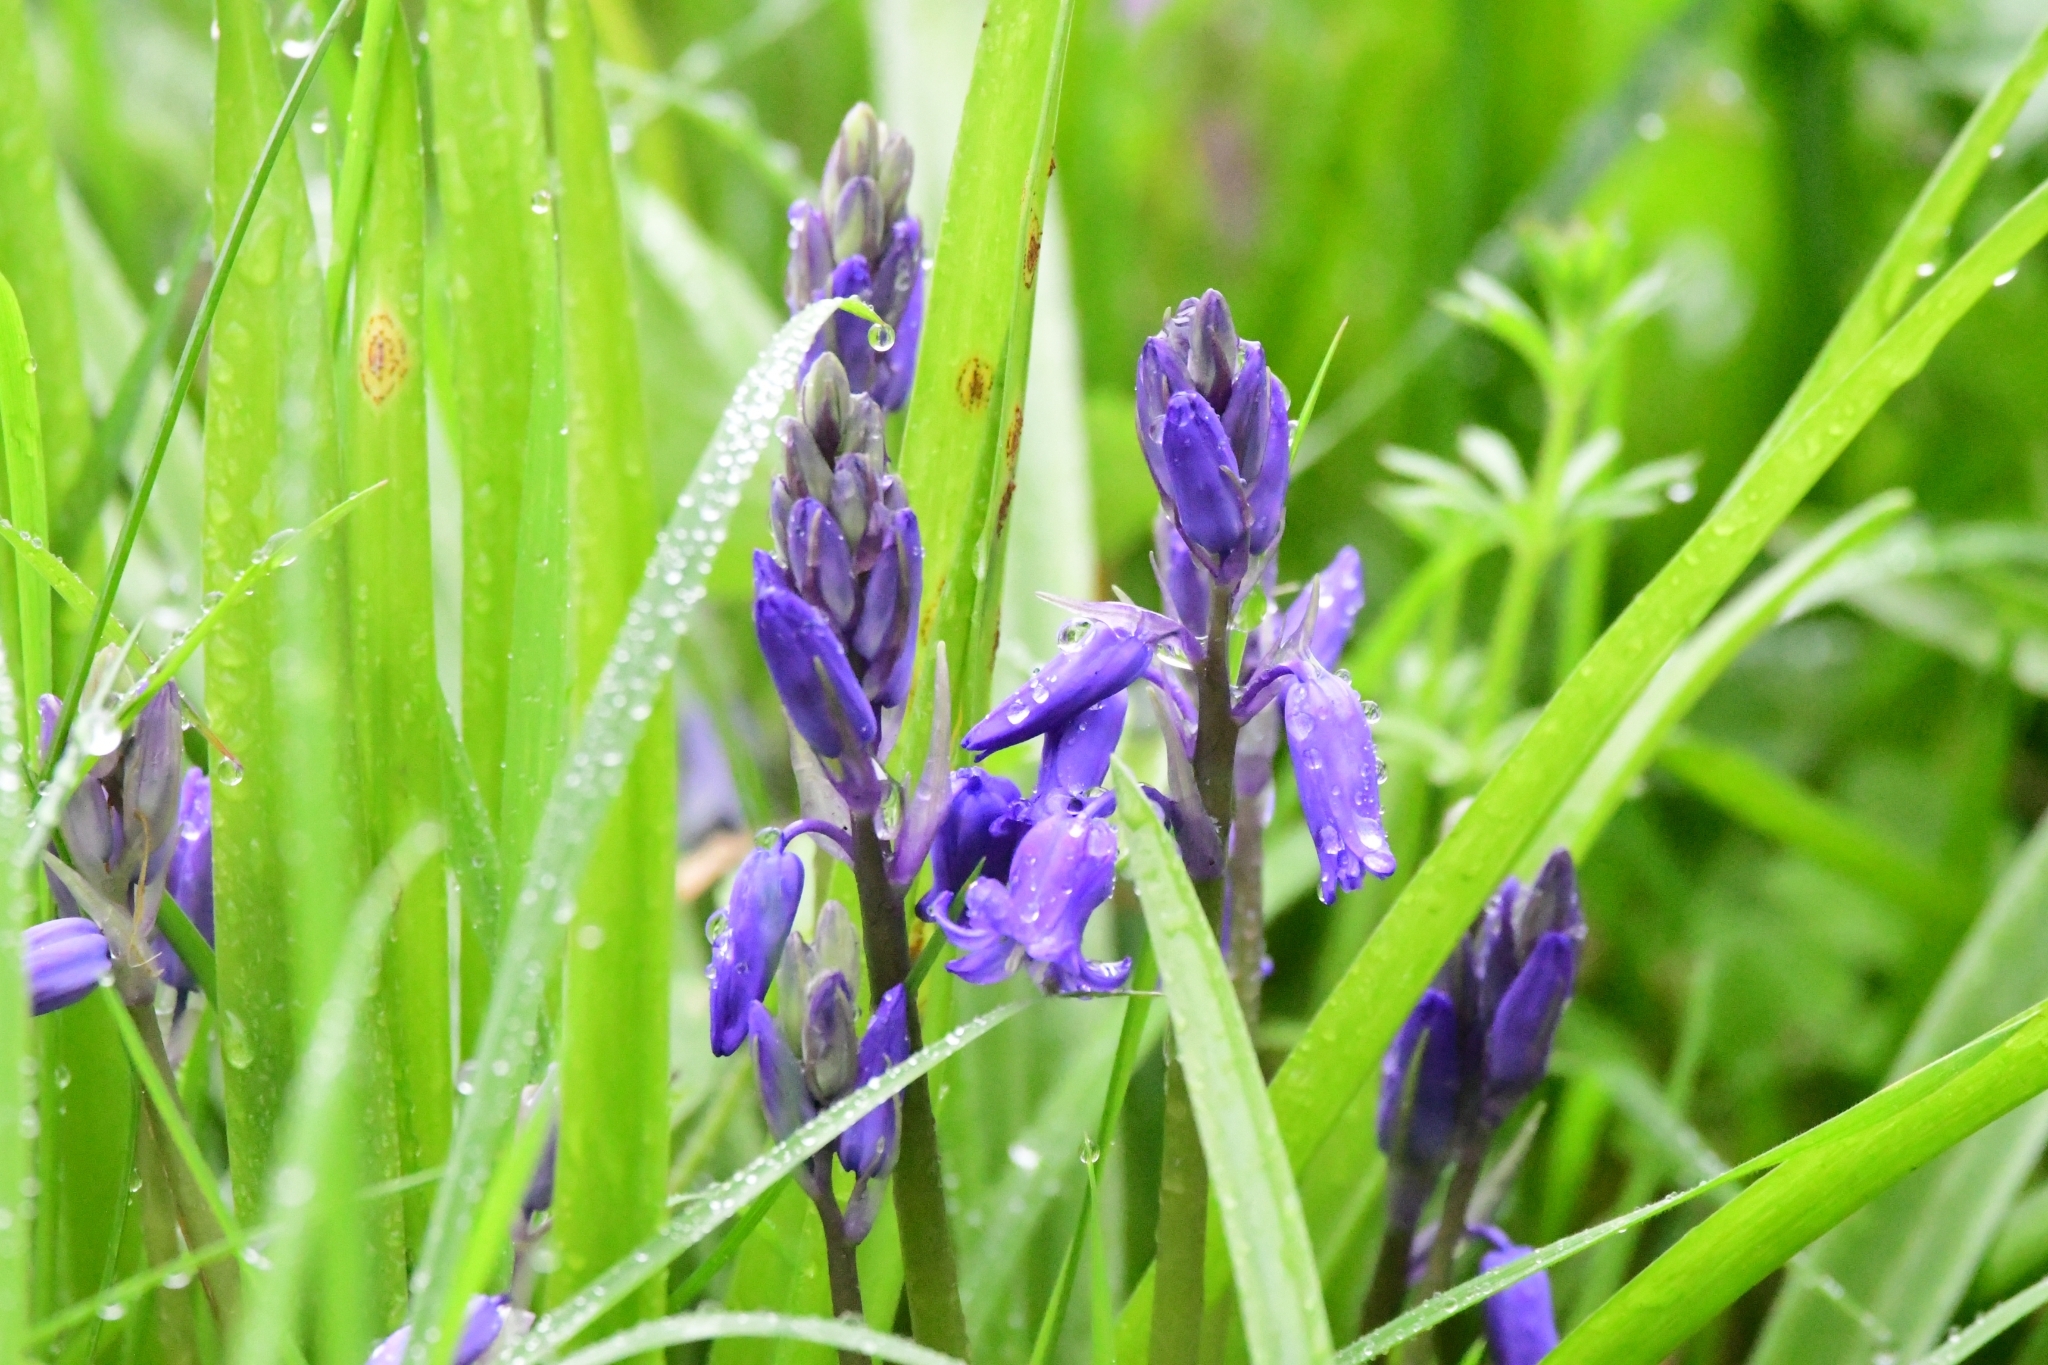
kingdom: Plantae
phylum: Tracheophyta
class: Liliopsida
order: Asparagales
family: Asparagaceae
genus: Hyacinthoides
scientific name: Hyacinthoides non-scripta
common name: Bluebell
